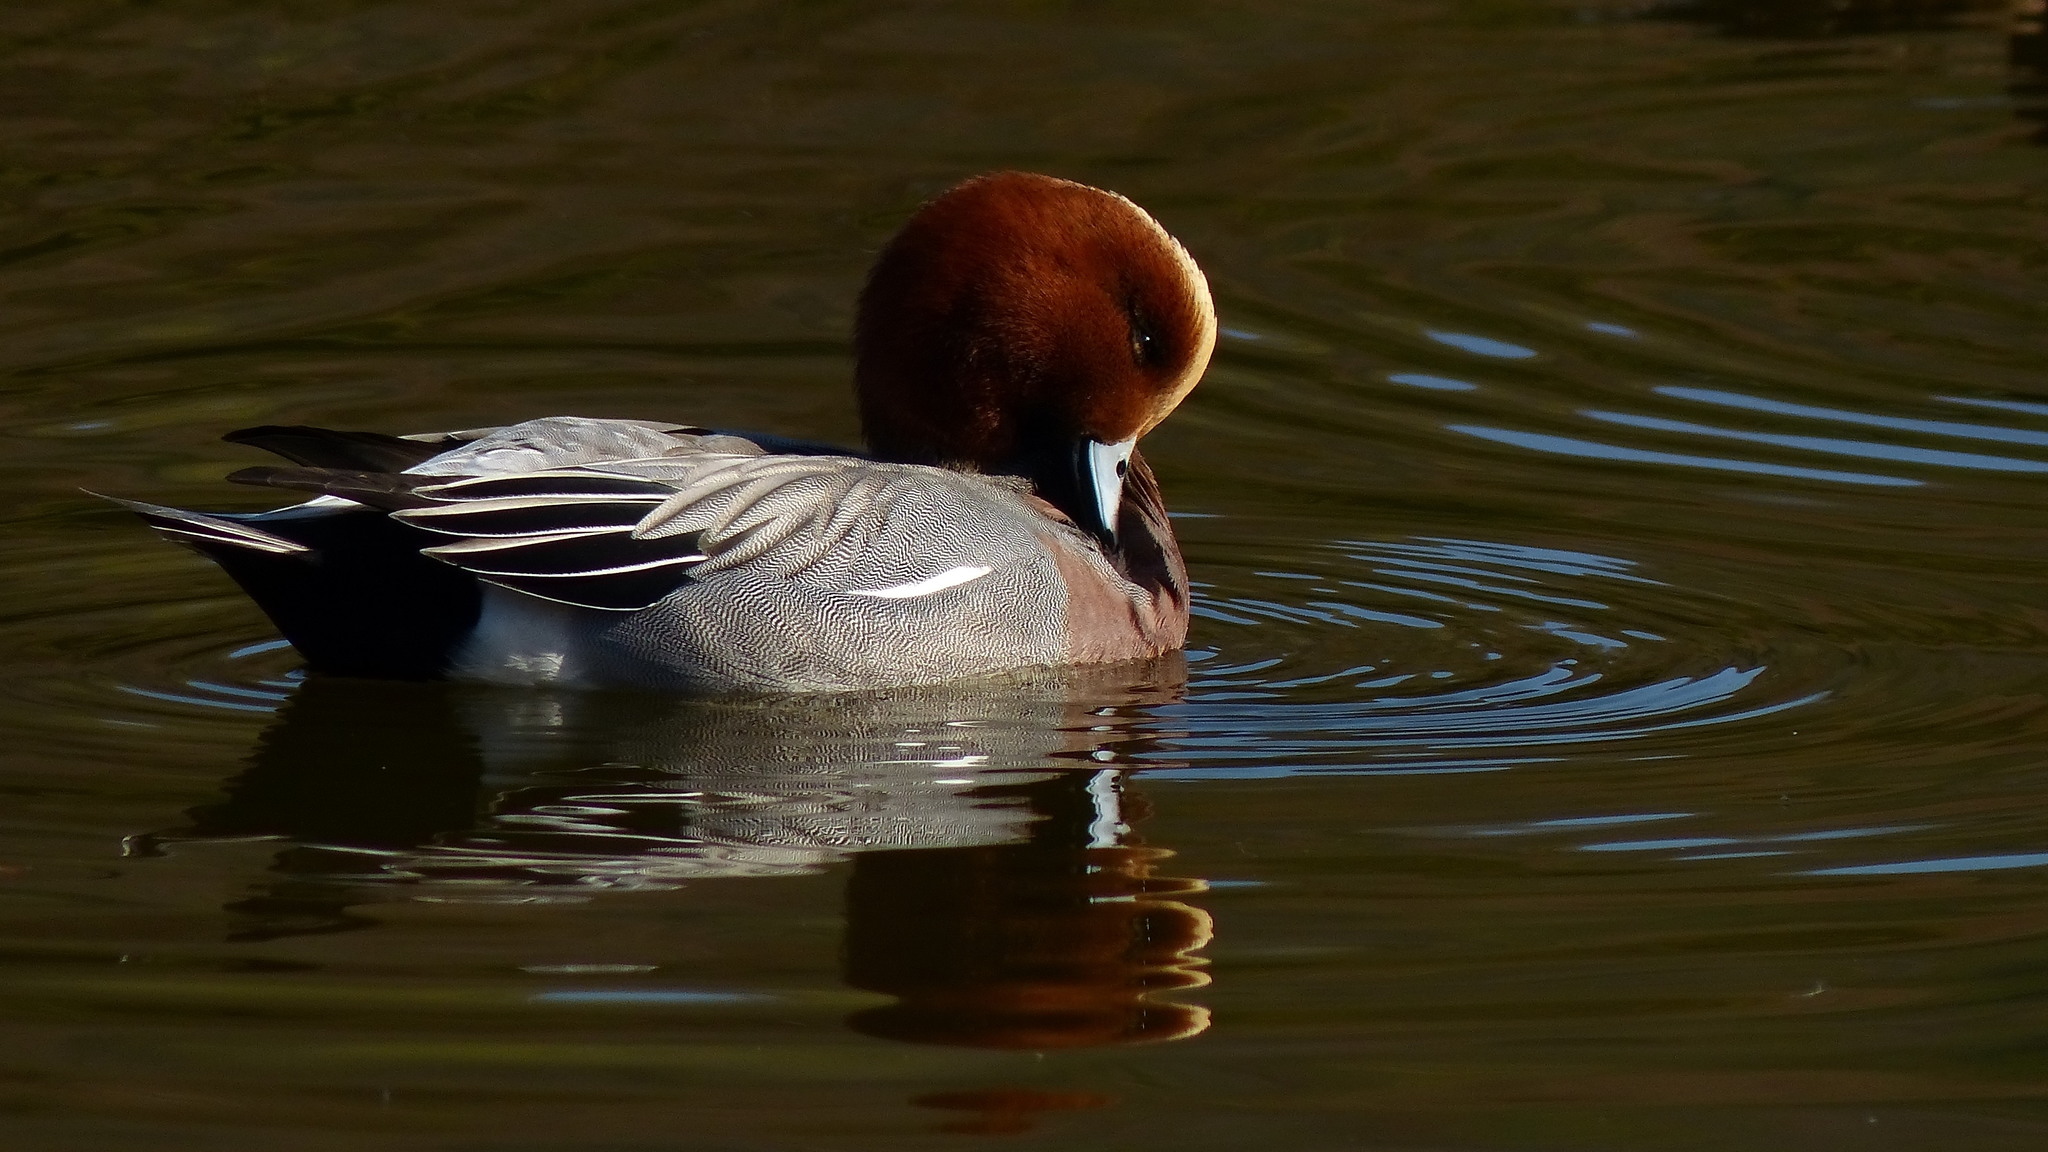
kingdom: Animalia
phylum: Chordata
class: Aves
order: Anseriformes
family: Anatidae
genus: Mareca
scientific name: Mareca penelope
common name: Eurasian wigeon
